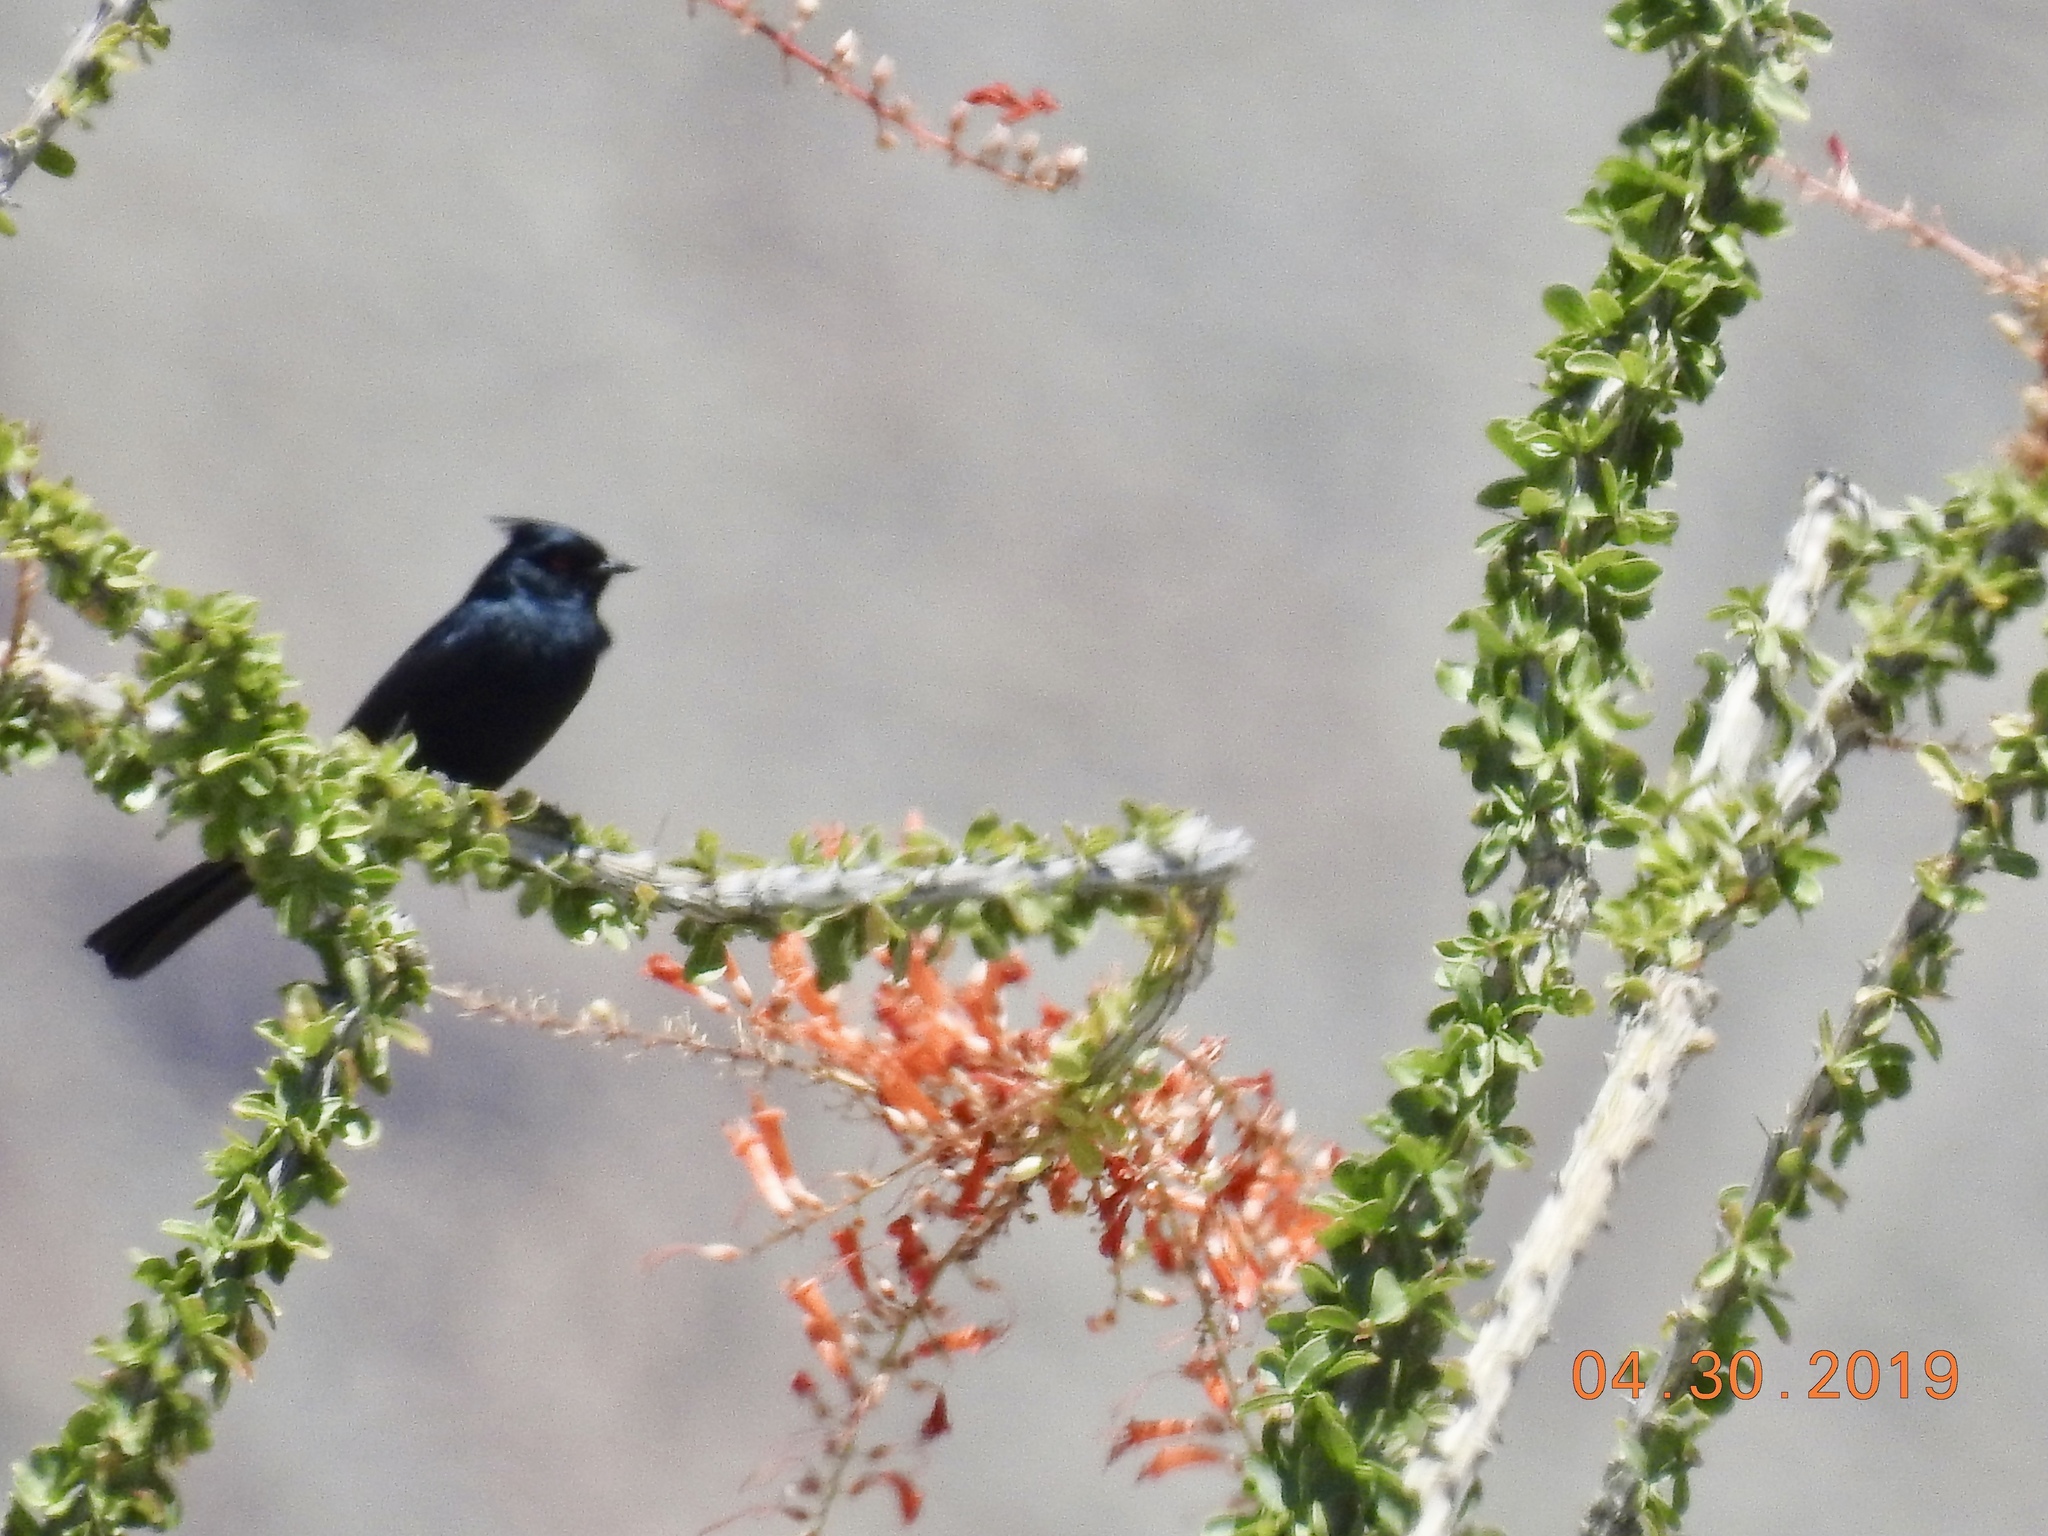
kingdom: Animalia
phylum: Chordata
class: Aves
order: Passeriformes
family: Ptilogonatidae
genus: Phainopepla
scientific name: Phainopepla nitens
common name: Phainopepla
